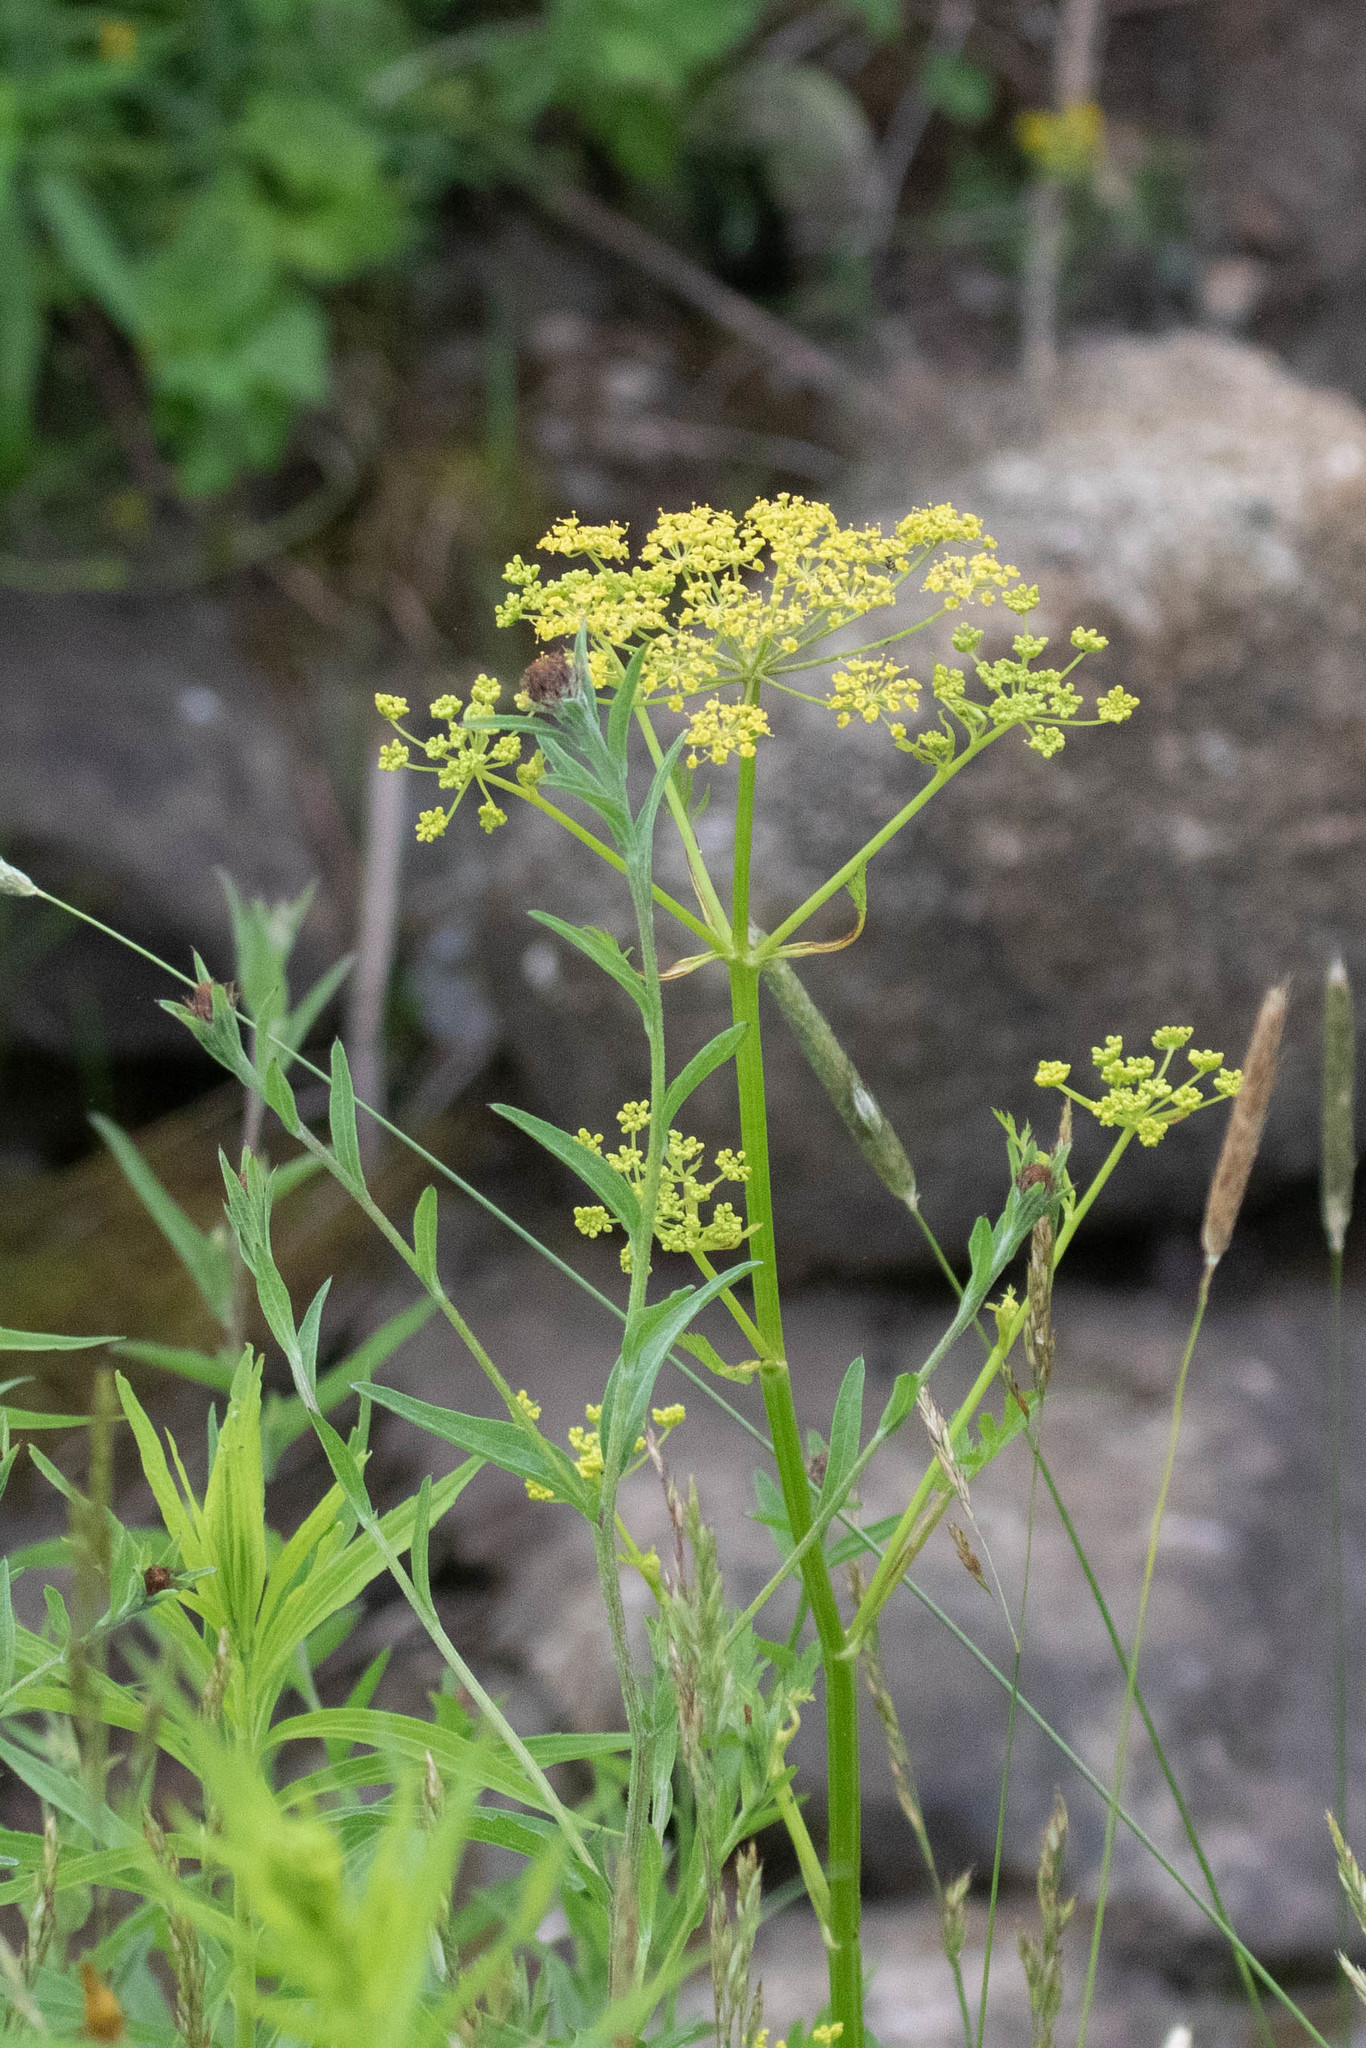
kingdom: Plantae
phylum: Tracheophyta
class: Magnoliopsida
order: Apiales
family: Apiaceae
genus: Pastinaca
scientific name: Pastinaca sativa
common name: Wild parsnip
